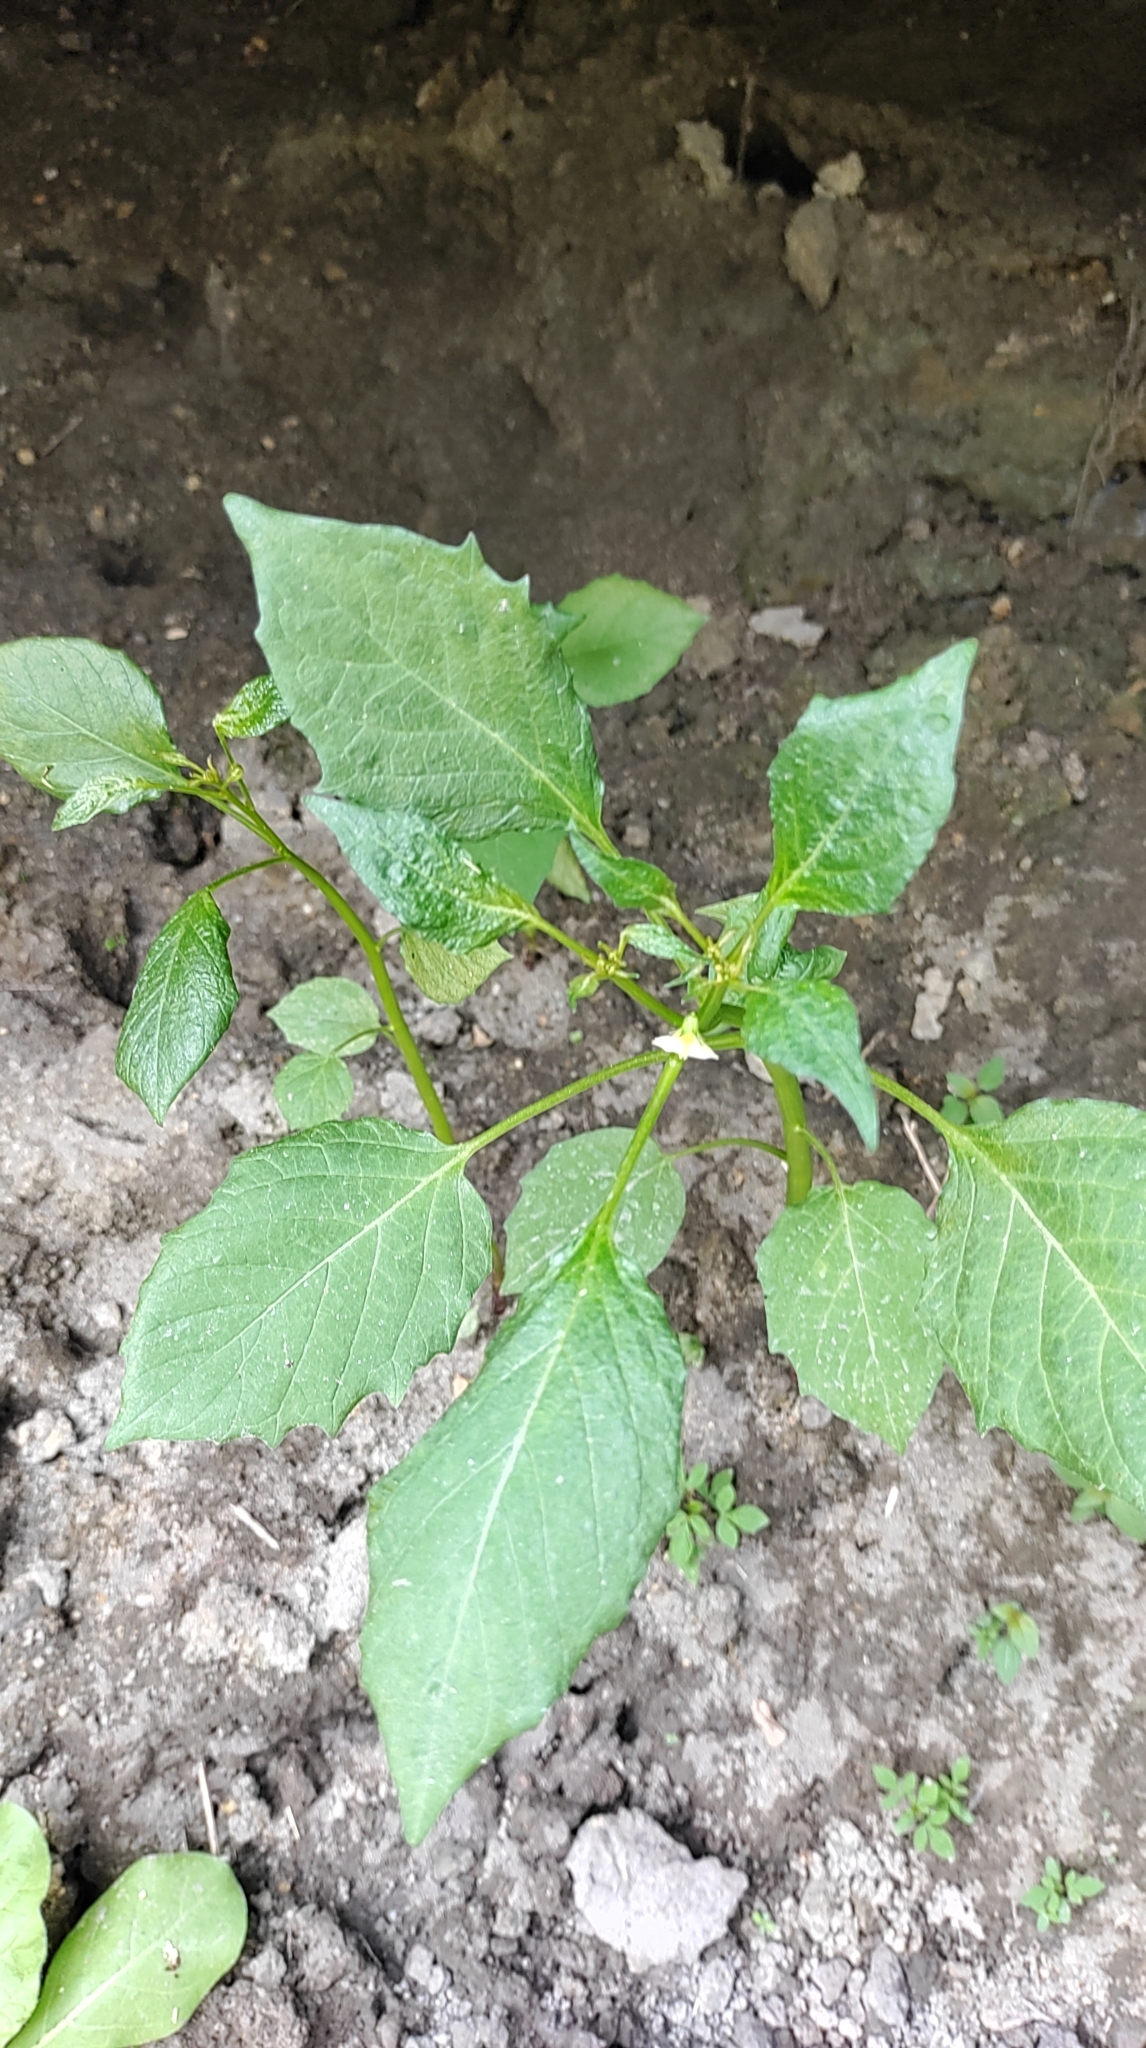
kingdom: Plantae
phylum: Tracheophyta
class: Magnoliopsida
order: Solanales
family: Solanaceae
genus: Physalis
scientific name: Physalis angulata
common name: Angular winter-cherry
